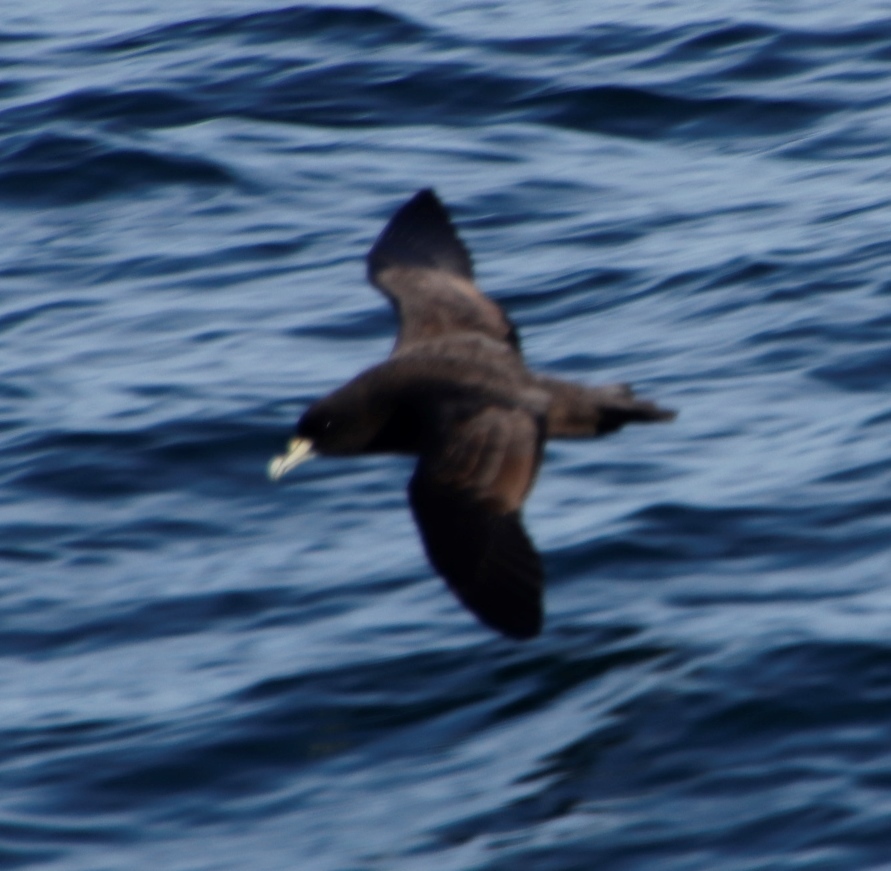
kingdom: Animalia
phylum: Chordata
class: Aves
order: Procellariiformes
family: Procellariidae
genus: Procellaria
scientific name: Procellaria aequinoctialis
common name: White-chinned petrel
